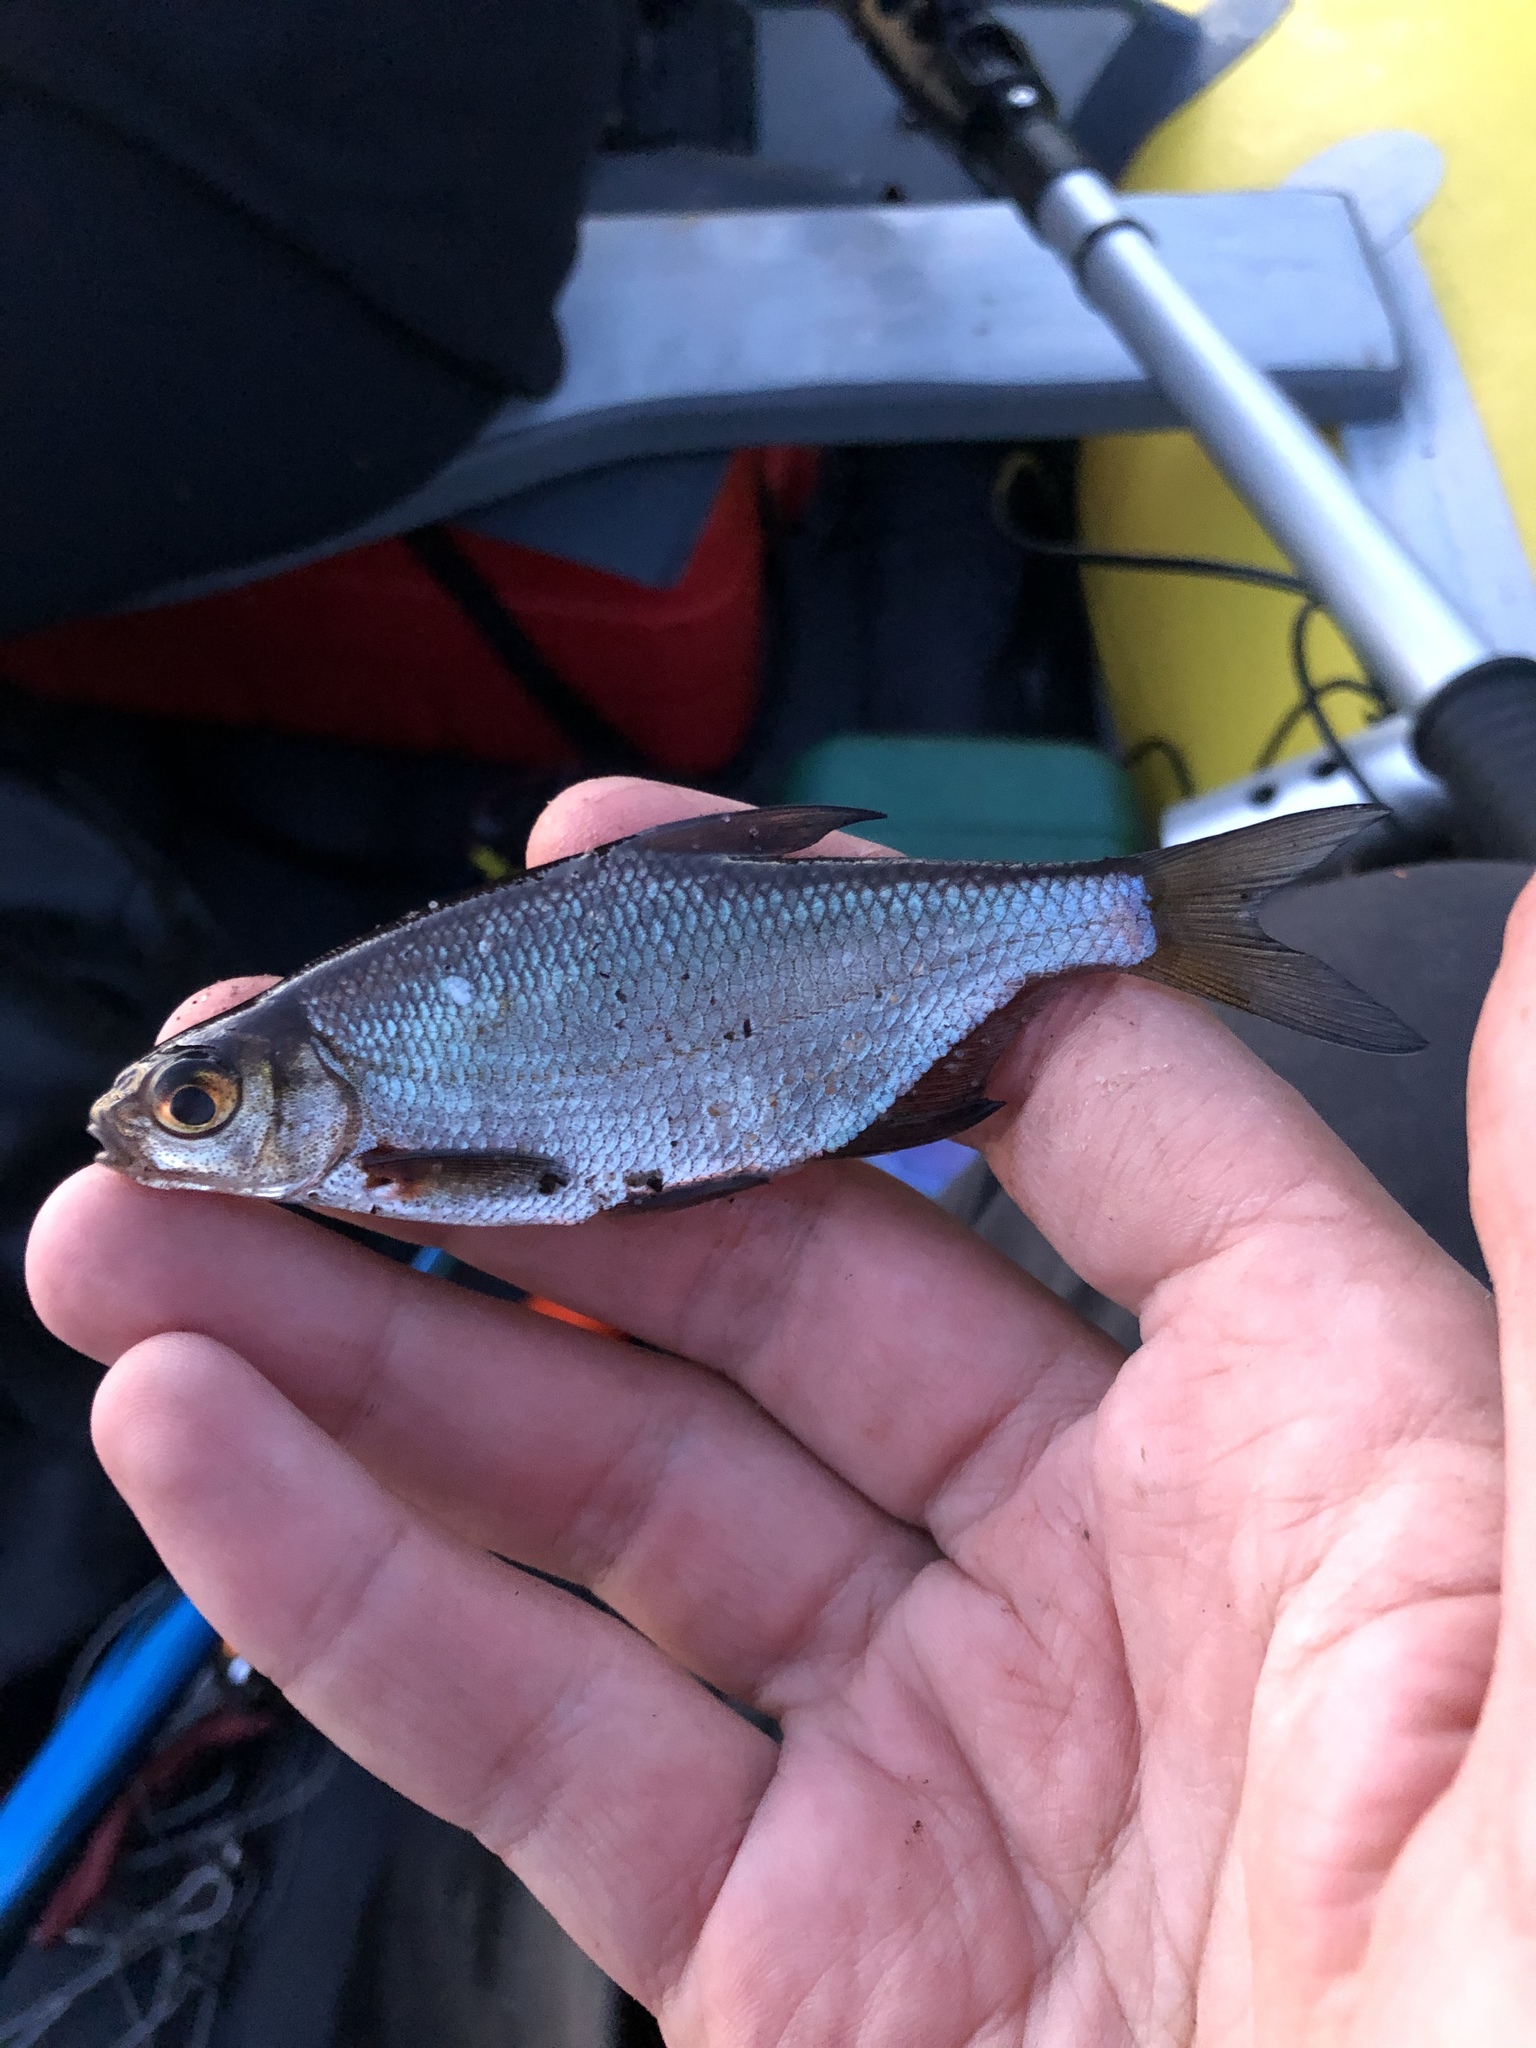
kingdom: Animalia
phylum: Chordata
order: Cypriniformes
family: Cyprinidae
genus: Blicca
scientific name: Blicca bjoerkna
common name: White bream
